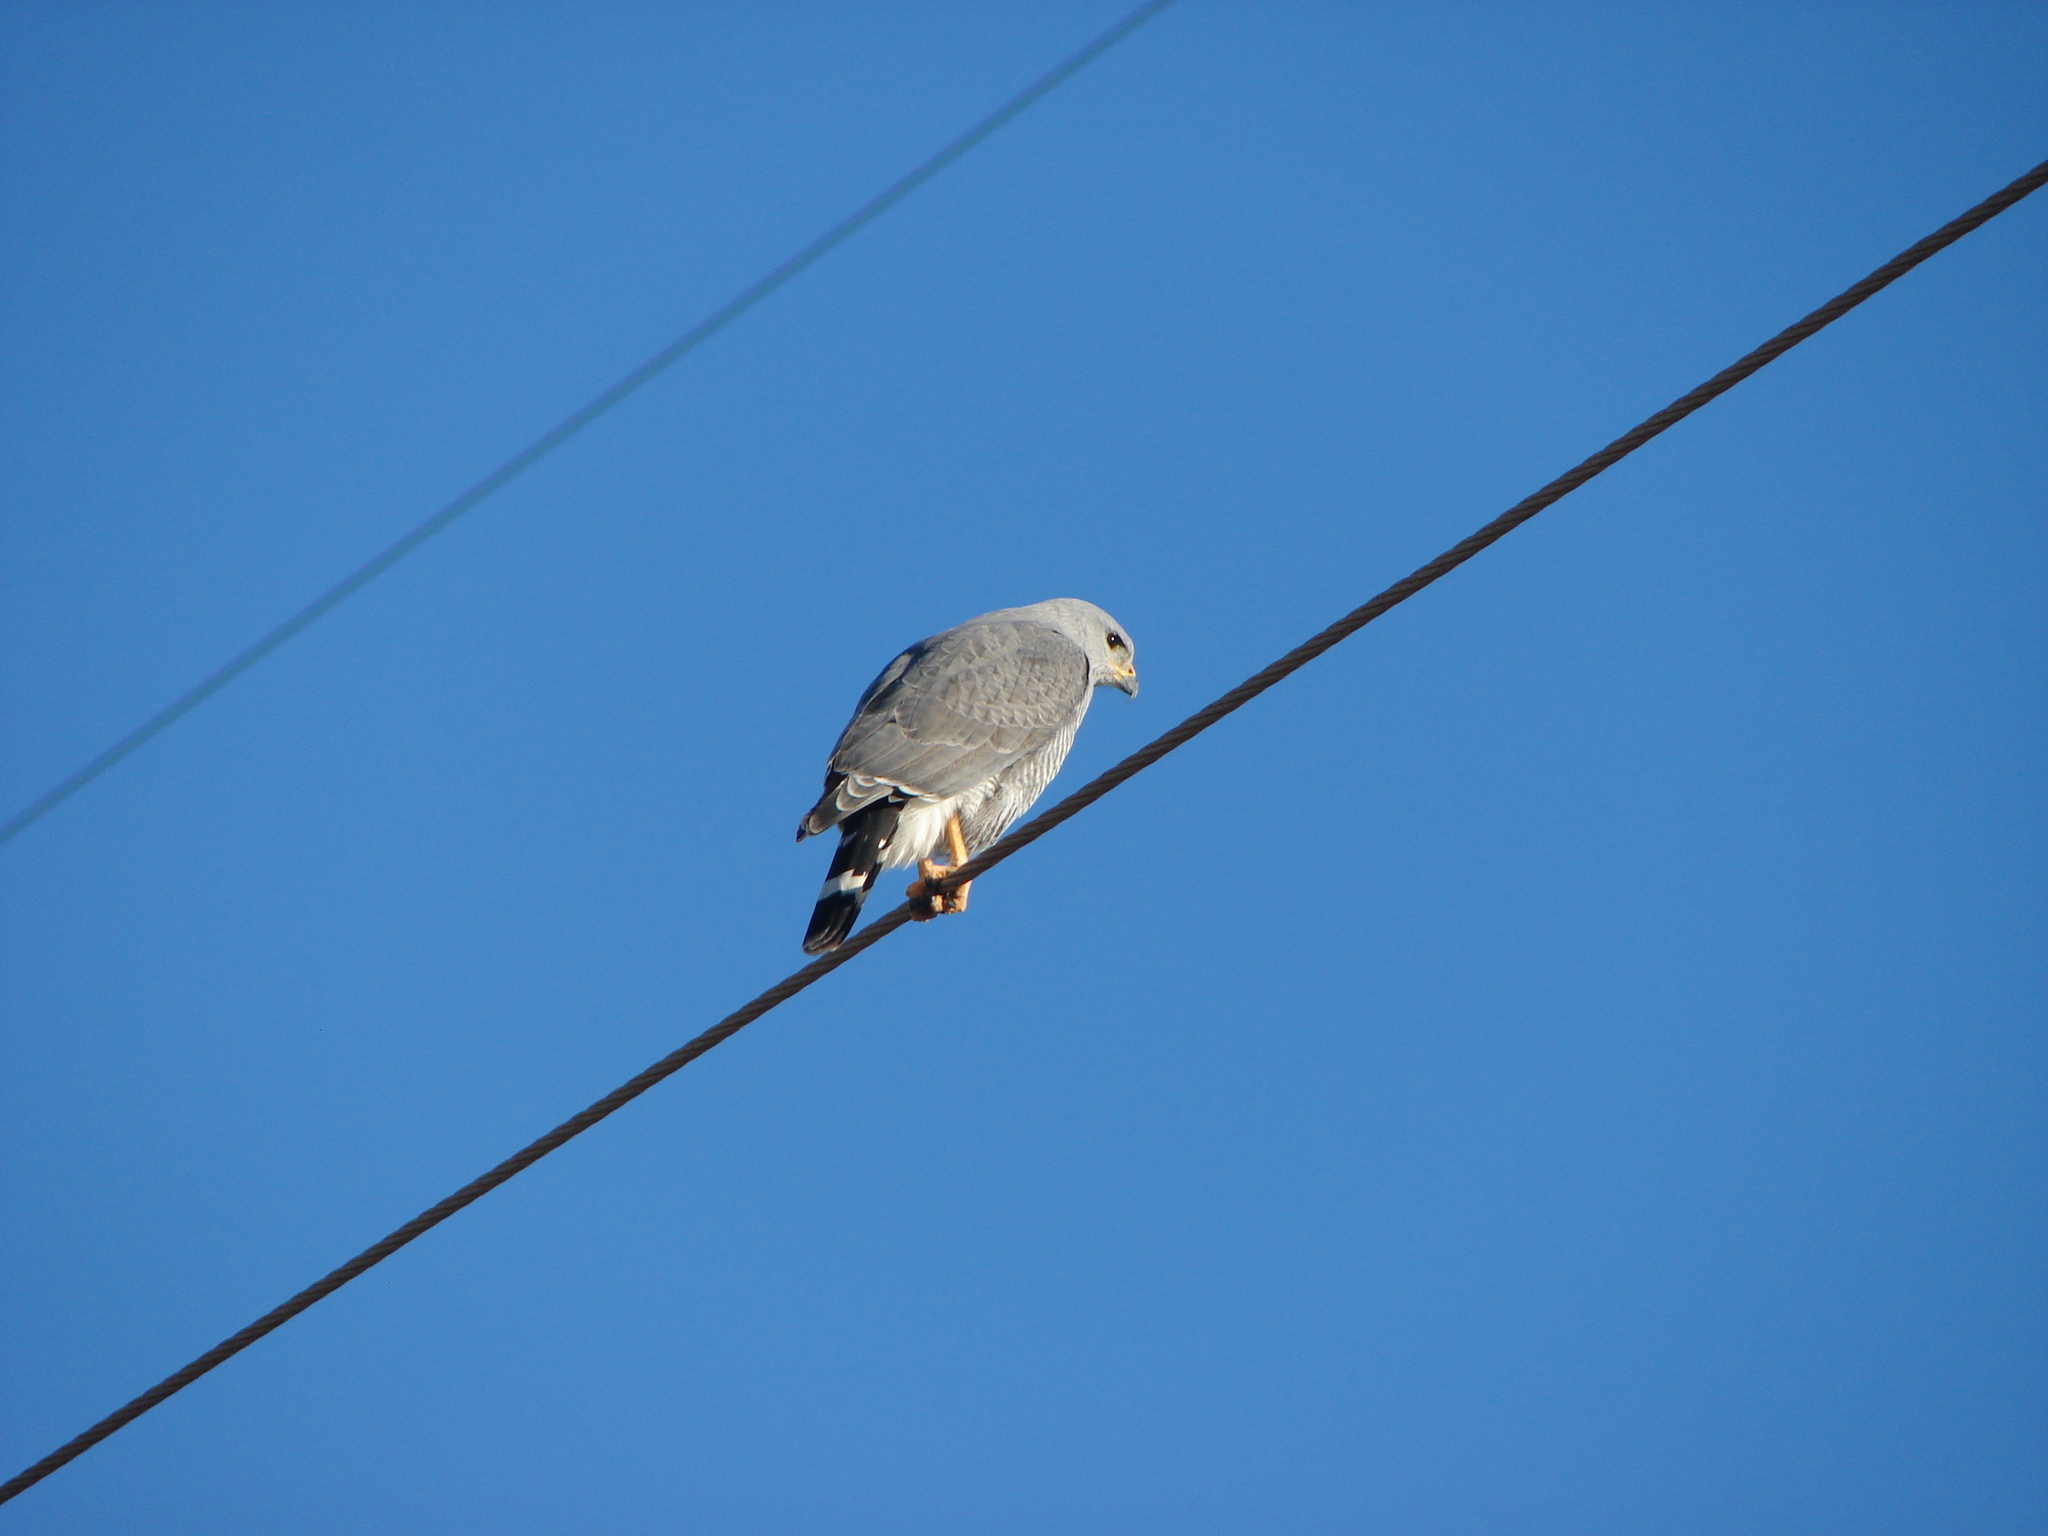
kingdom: Animalia
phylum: Chordata
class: Aves
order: Accipitriformes
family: Accipitridae
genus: Buteo
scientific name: Buteo nitidus
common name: Grey-lined hawk
